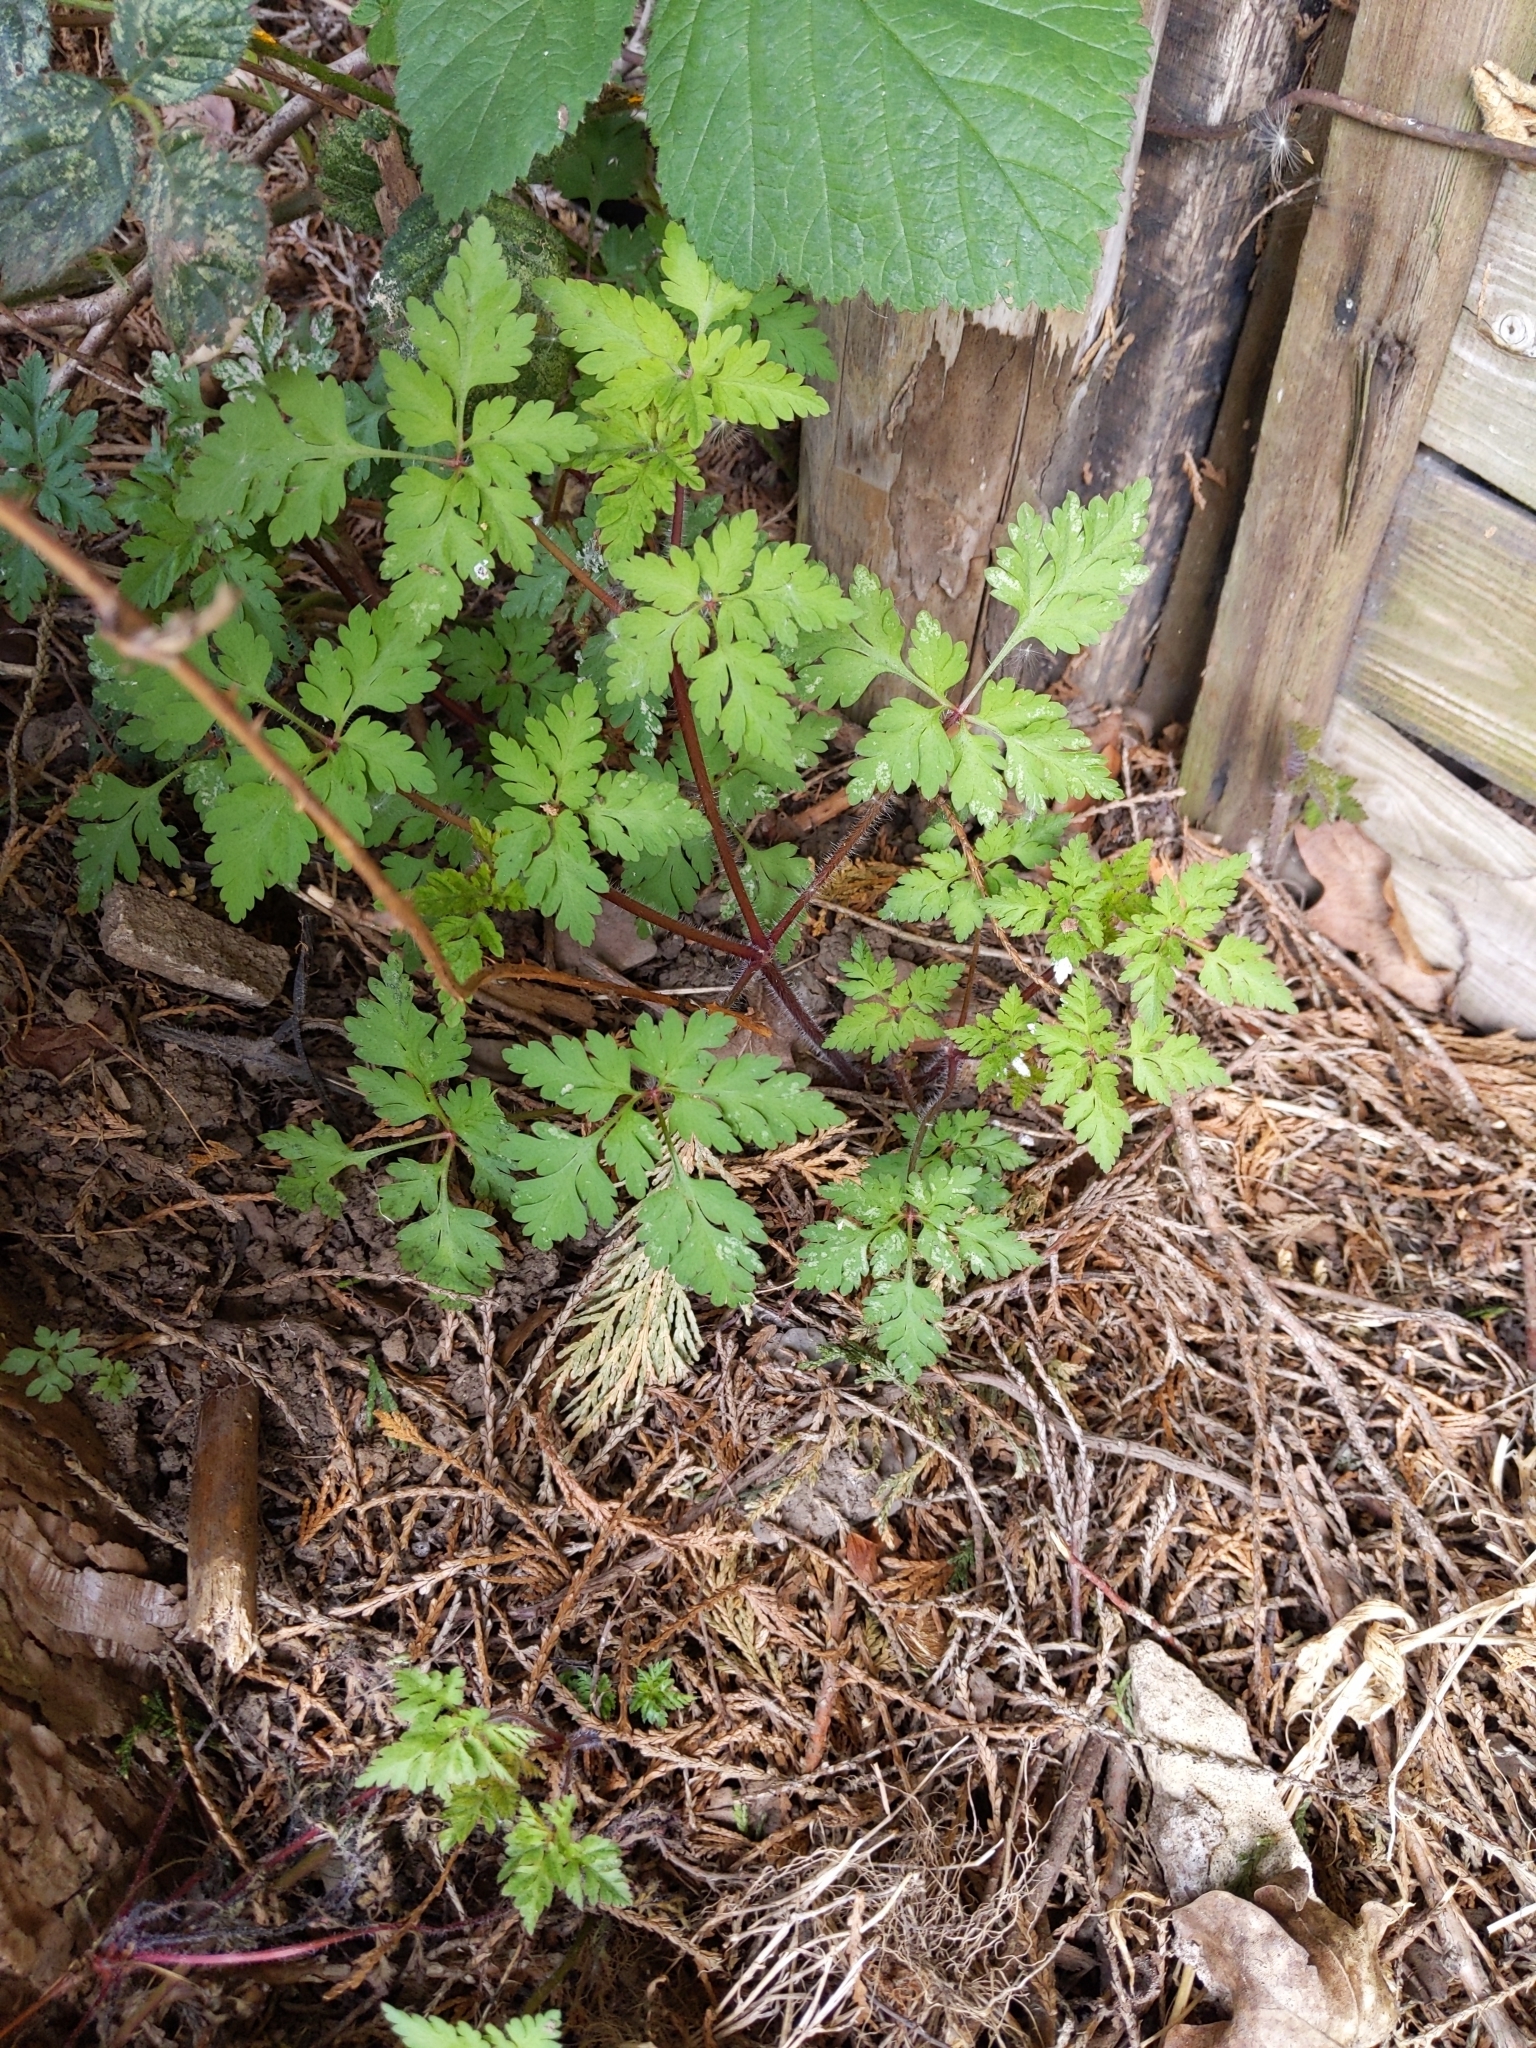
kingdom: Plantae
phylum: Tracheophyta
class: Magnoliopsida
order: Geraniales
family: Geraniaceae
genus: Geranium
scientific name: Geranium robertianum
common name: Herb-robert
